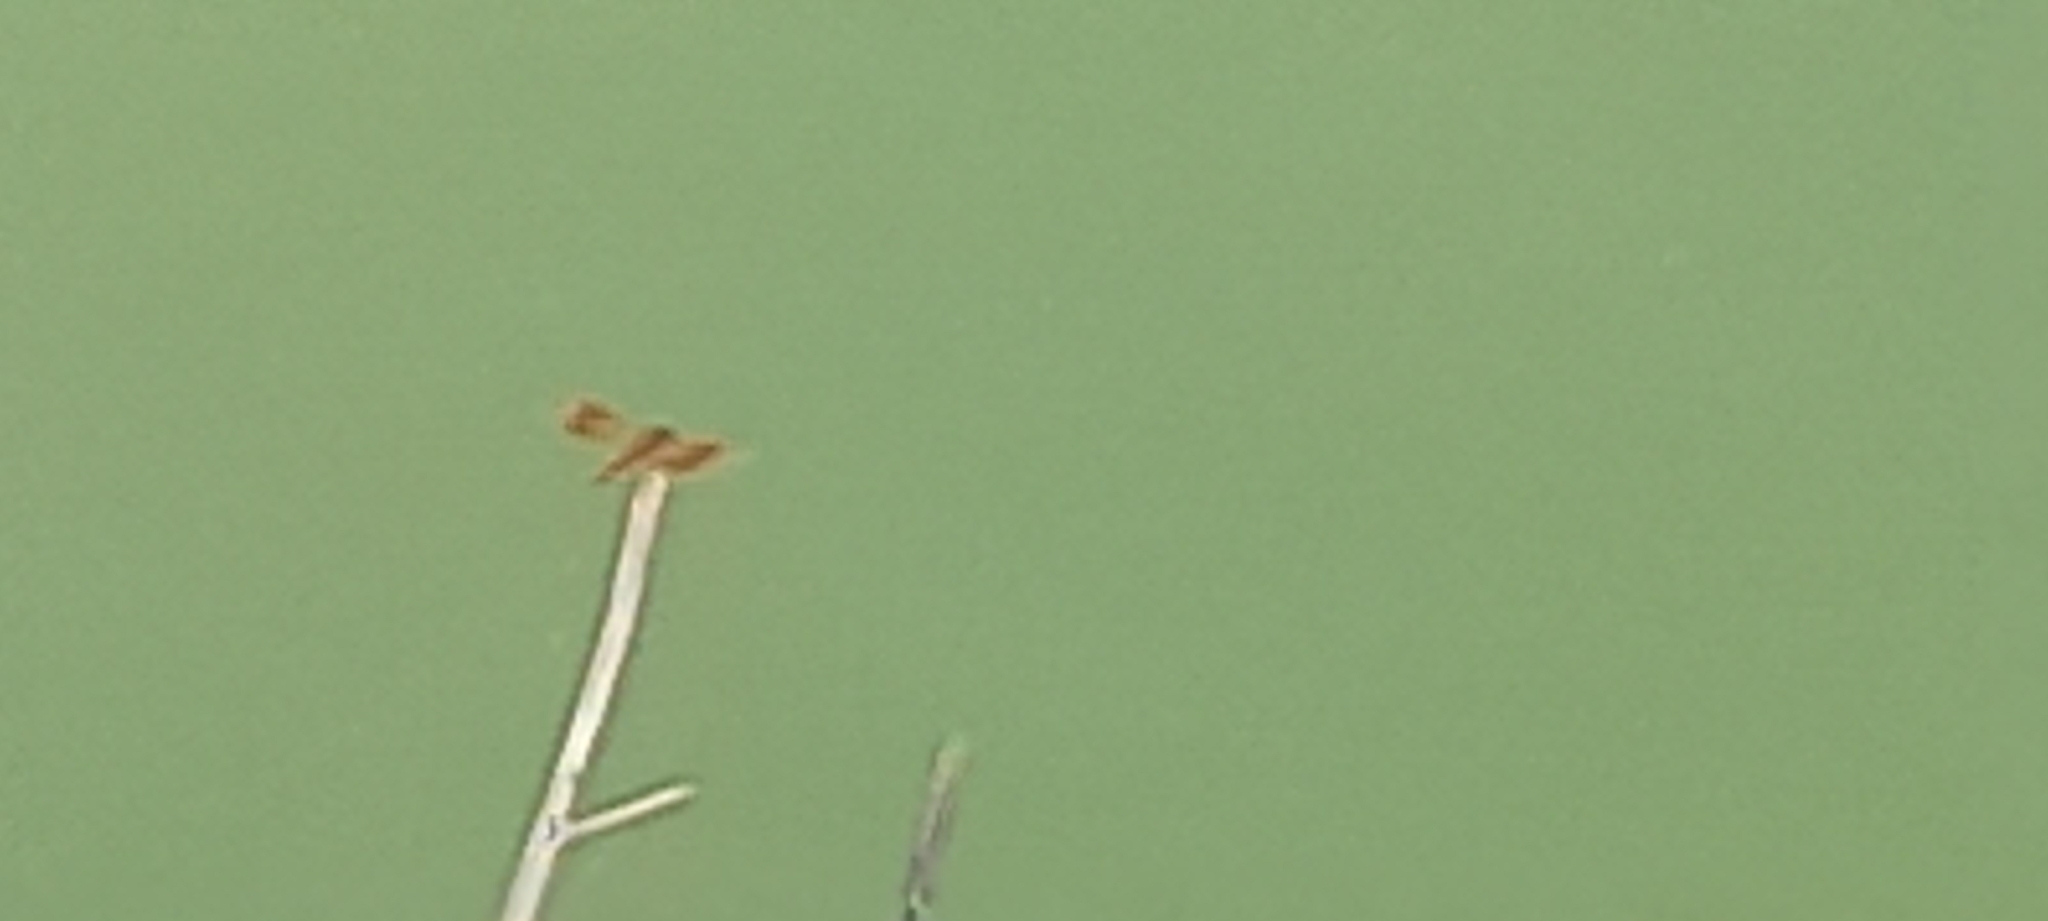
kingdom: Animalia
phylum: Arthropoda
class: Insecta
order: Odonata
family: Libellulidae
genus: Brachythemis
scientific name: Brachythemis contaminata
